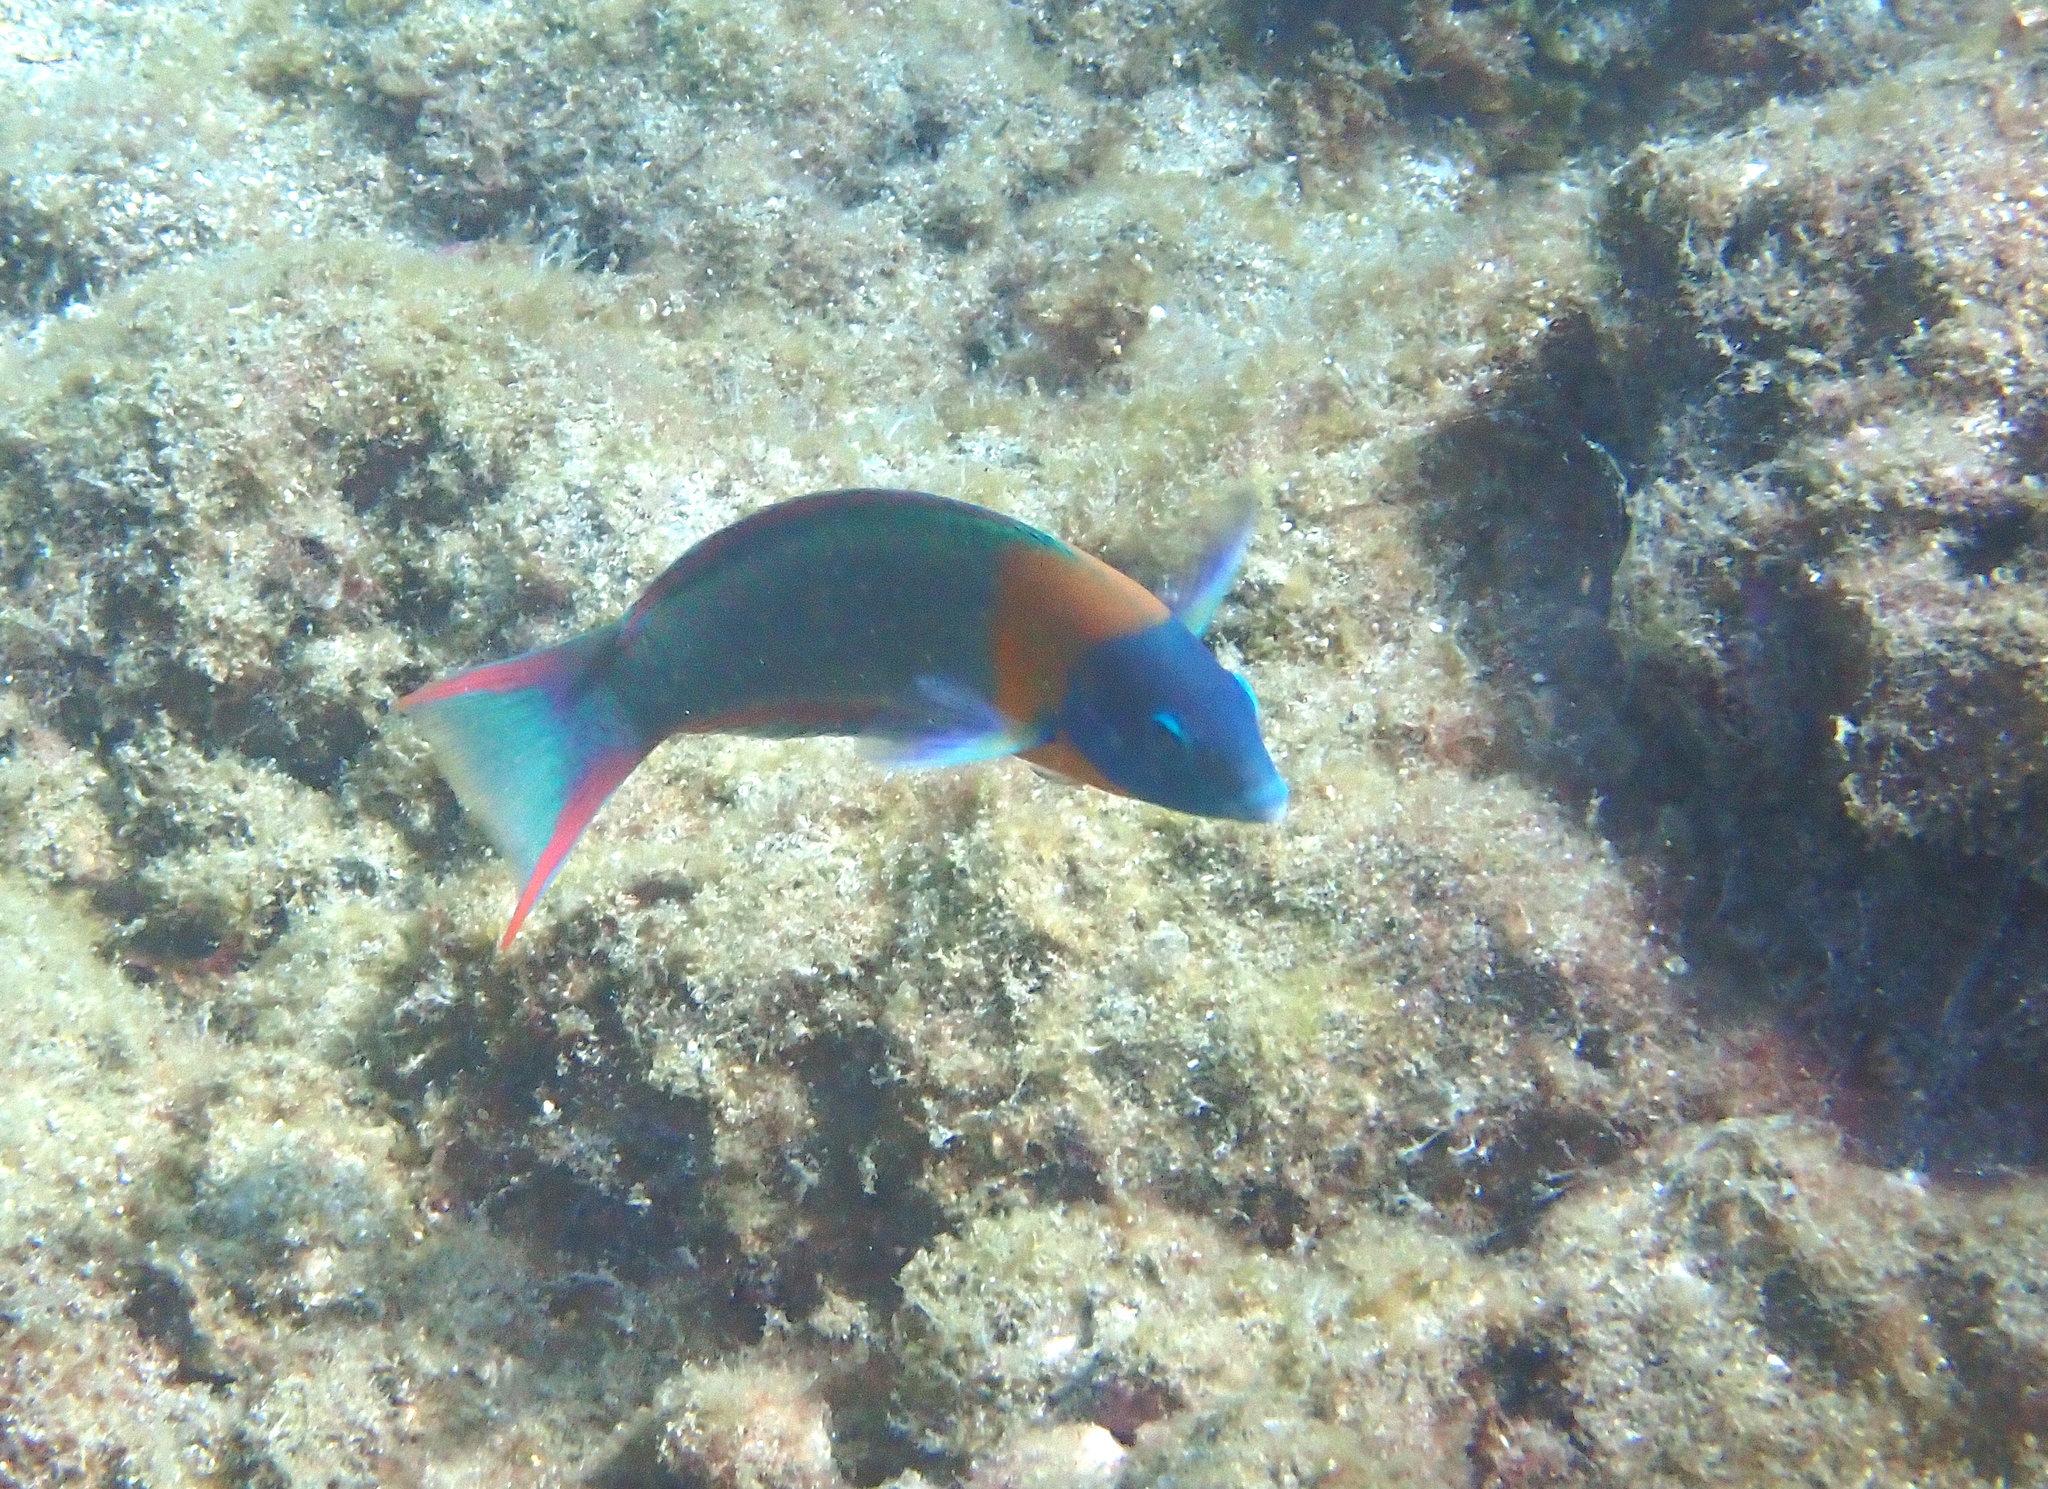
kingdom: Animalia
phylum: Chordata
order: Perciformes
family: Labridae
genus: Thalassoma
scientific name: Thalassoma duperrey
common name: Saddle wrasse
